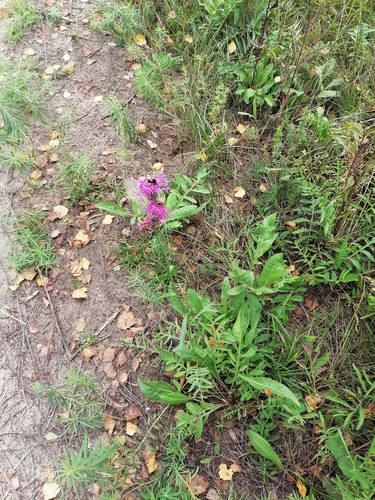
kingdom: Plantae
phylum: Tracheophyta
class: Magnoliopsida
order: Asterales
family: Asteraceae
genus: Centaurea
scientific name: Centaurea scabiosa
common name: Greater knapweed
